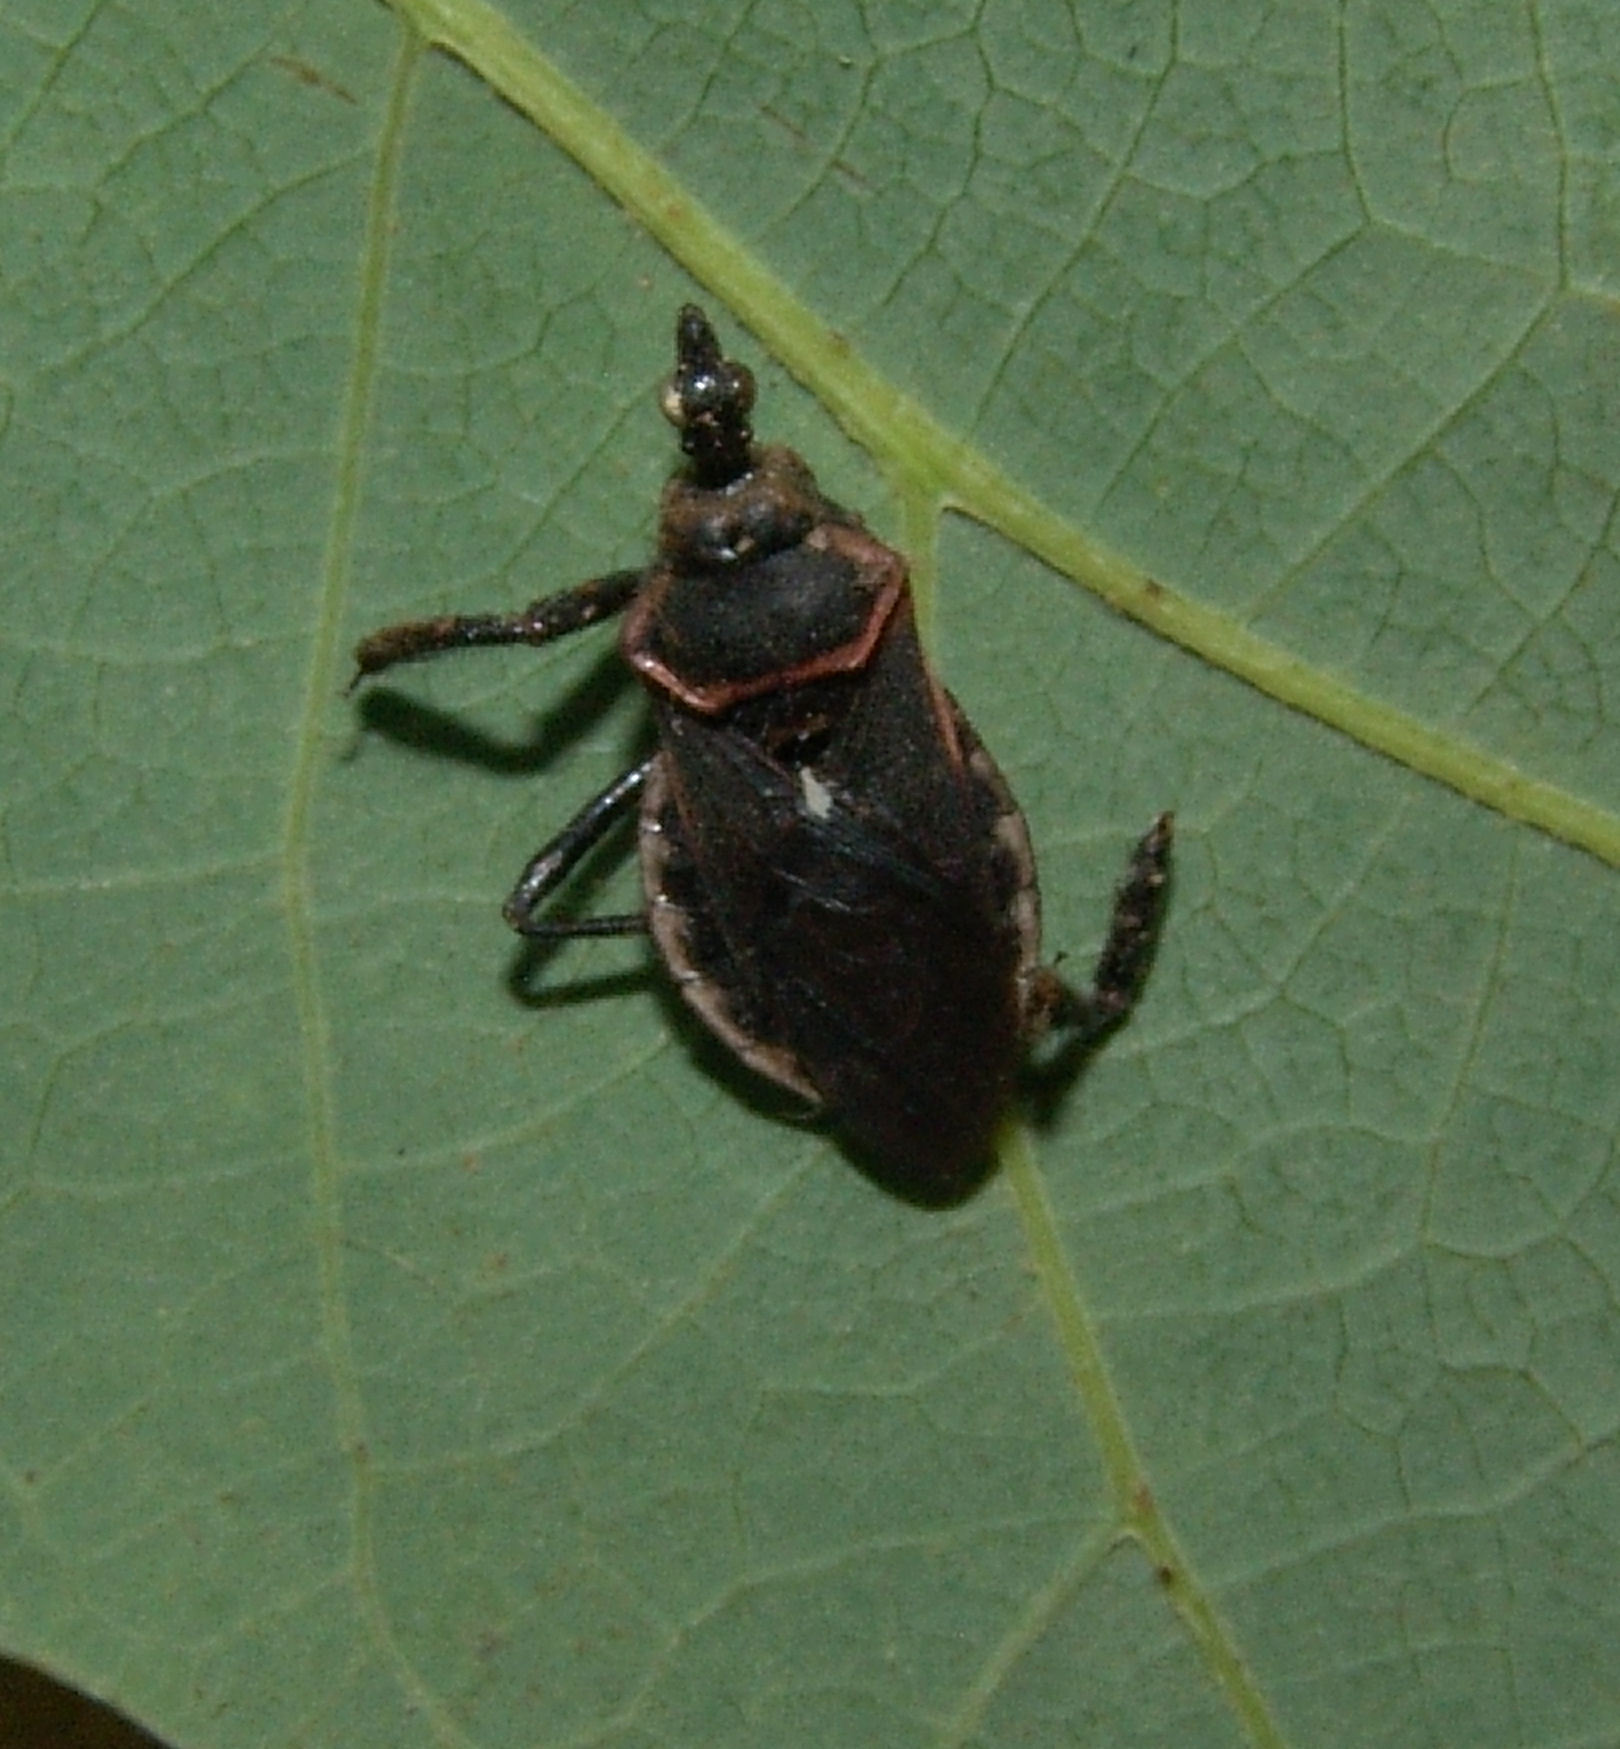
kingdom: Animalia
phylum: Arthropoda
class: Insecta
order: Hemiptera
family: Reduviidae
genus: Apiomerus
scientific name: Apiomerus crassipes
